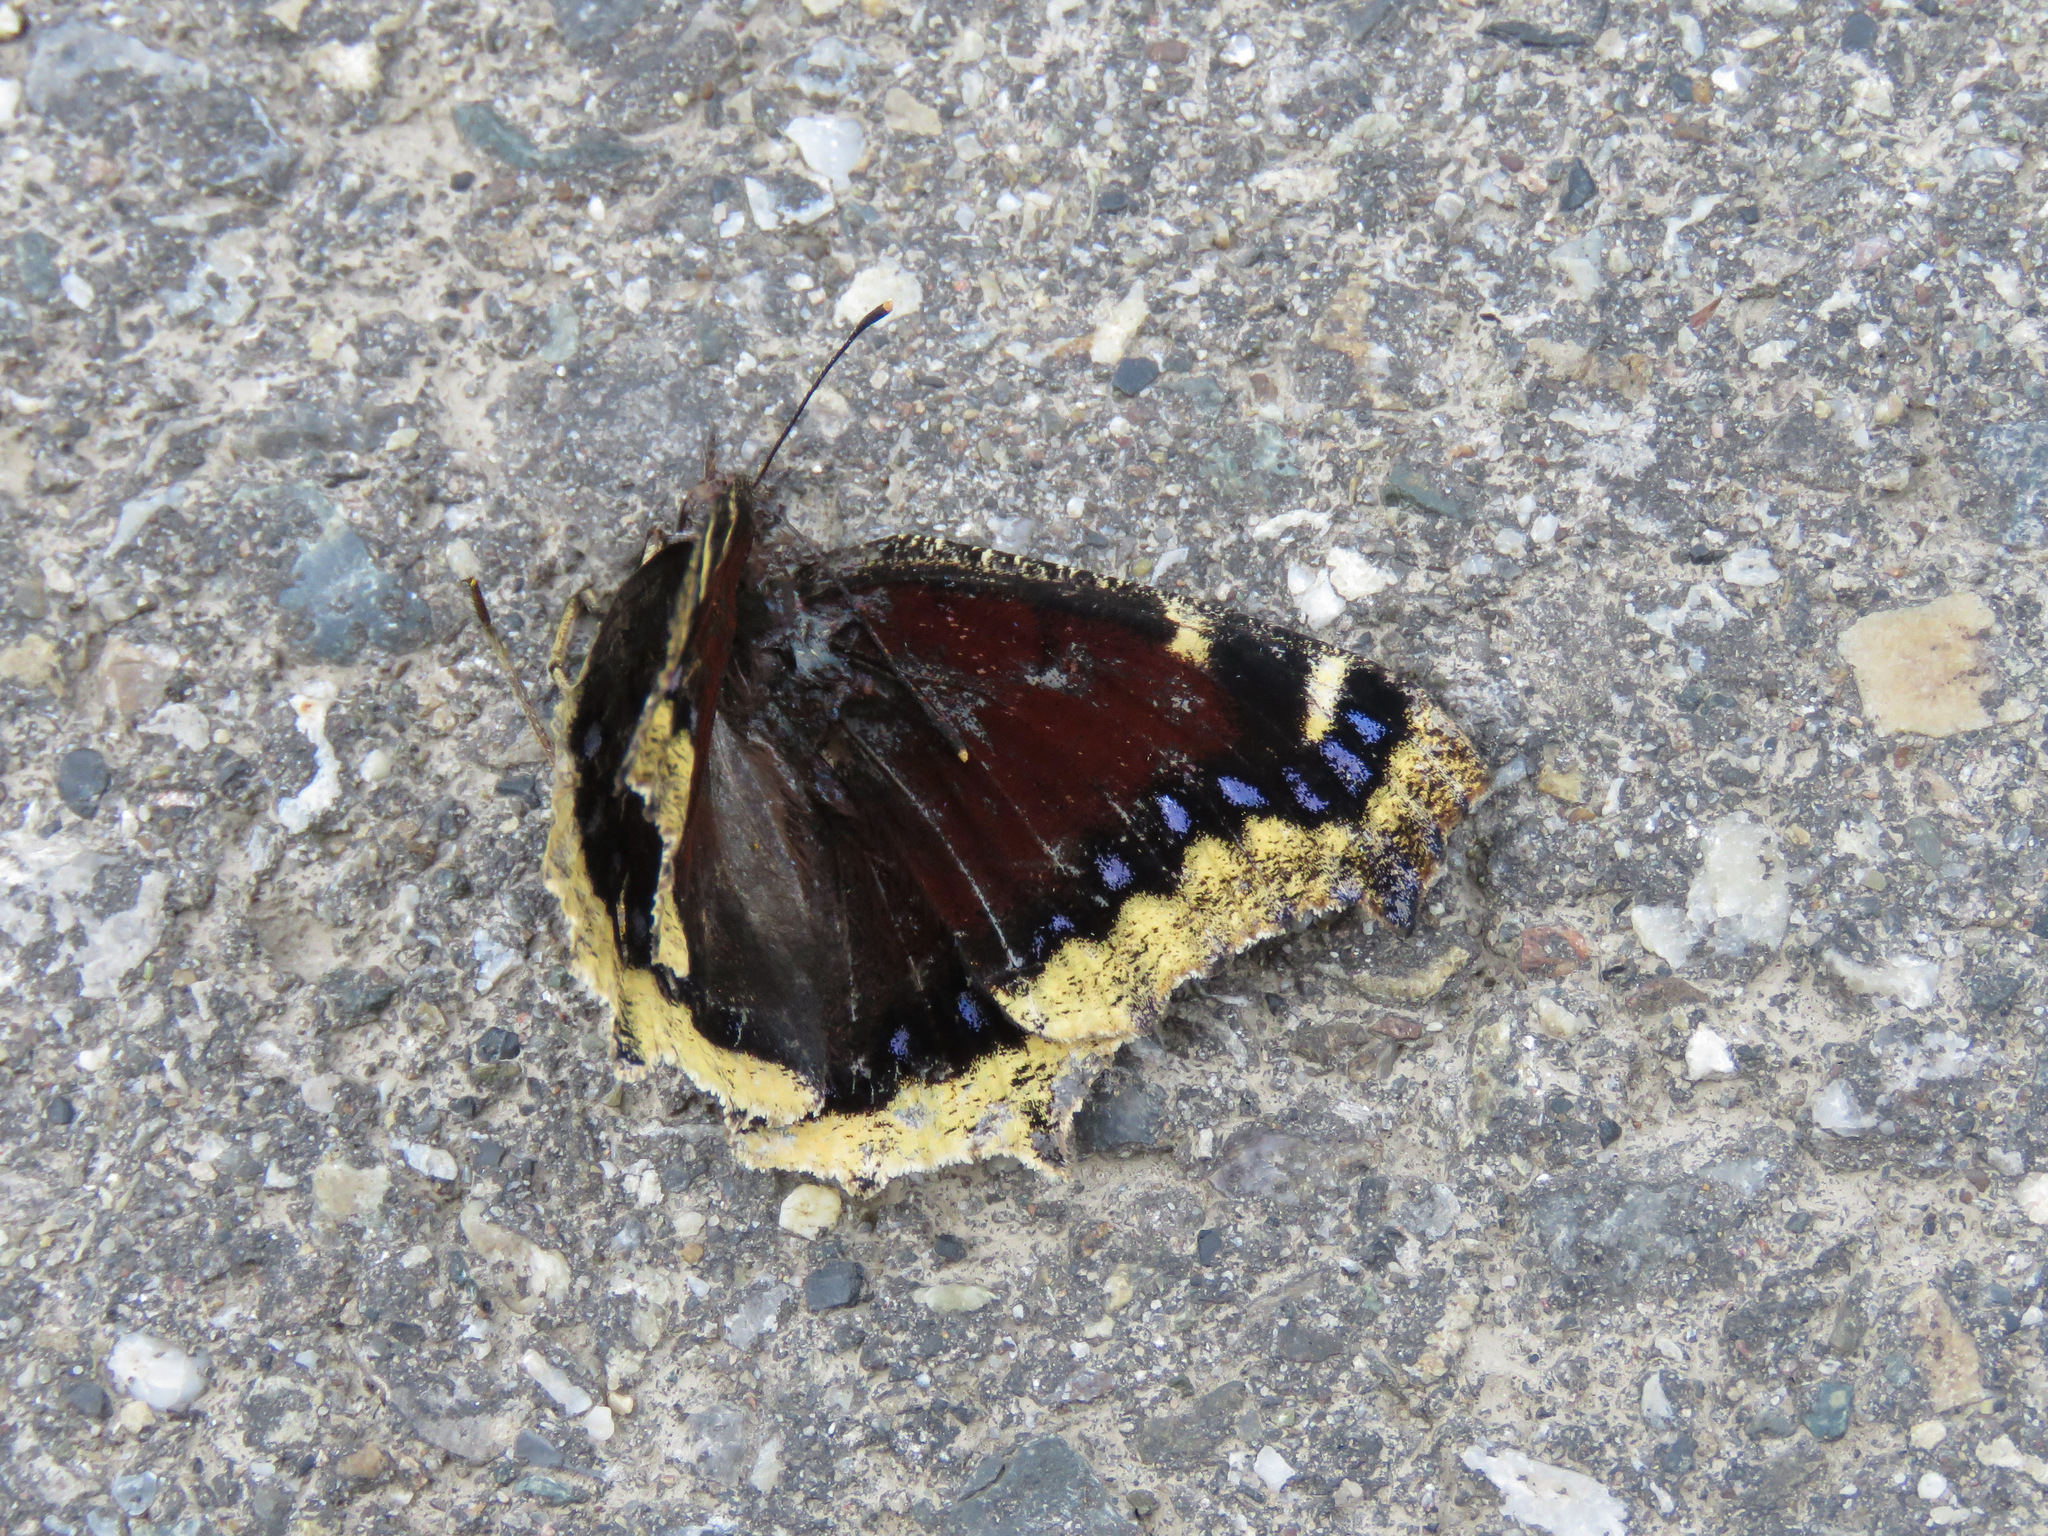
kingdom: Animalia
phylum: Arthropoda
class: Insecta
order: Lepidoptera
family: Nymphalidae
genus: Nymphalis
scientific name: Nymphalis antiopa
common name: Camberwell beauty
